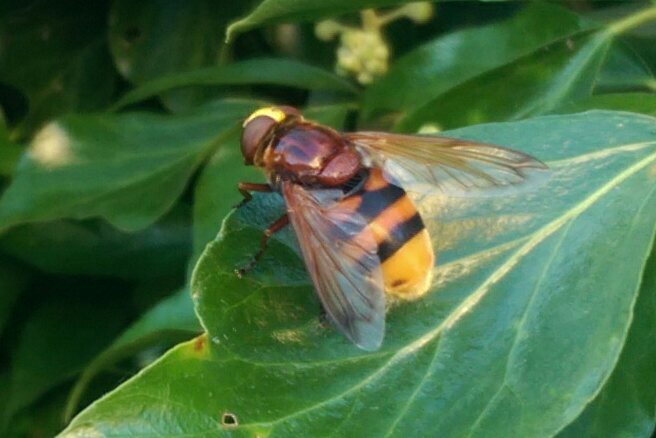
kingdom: Animalia
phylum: Arthropoda
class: Insecta
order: Diptera
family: Syrphidae
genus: Volucella
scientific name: Volucella zonaria
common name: Hornet hoverfly
